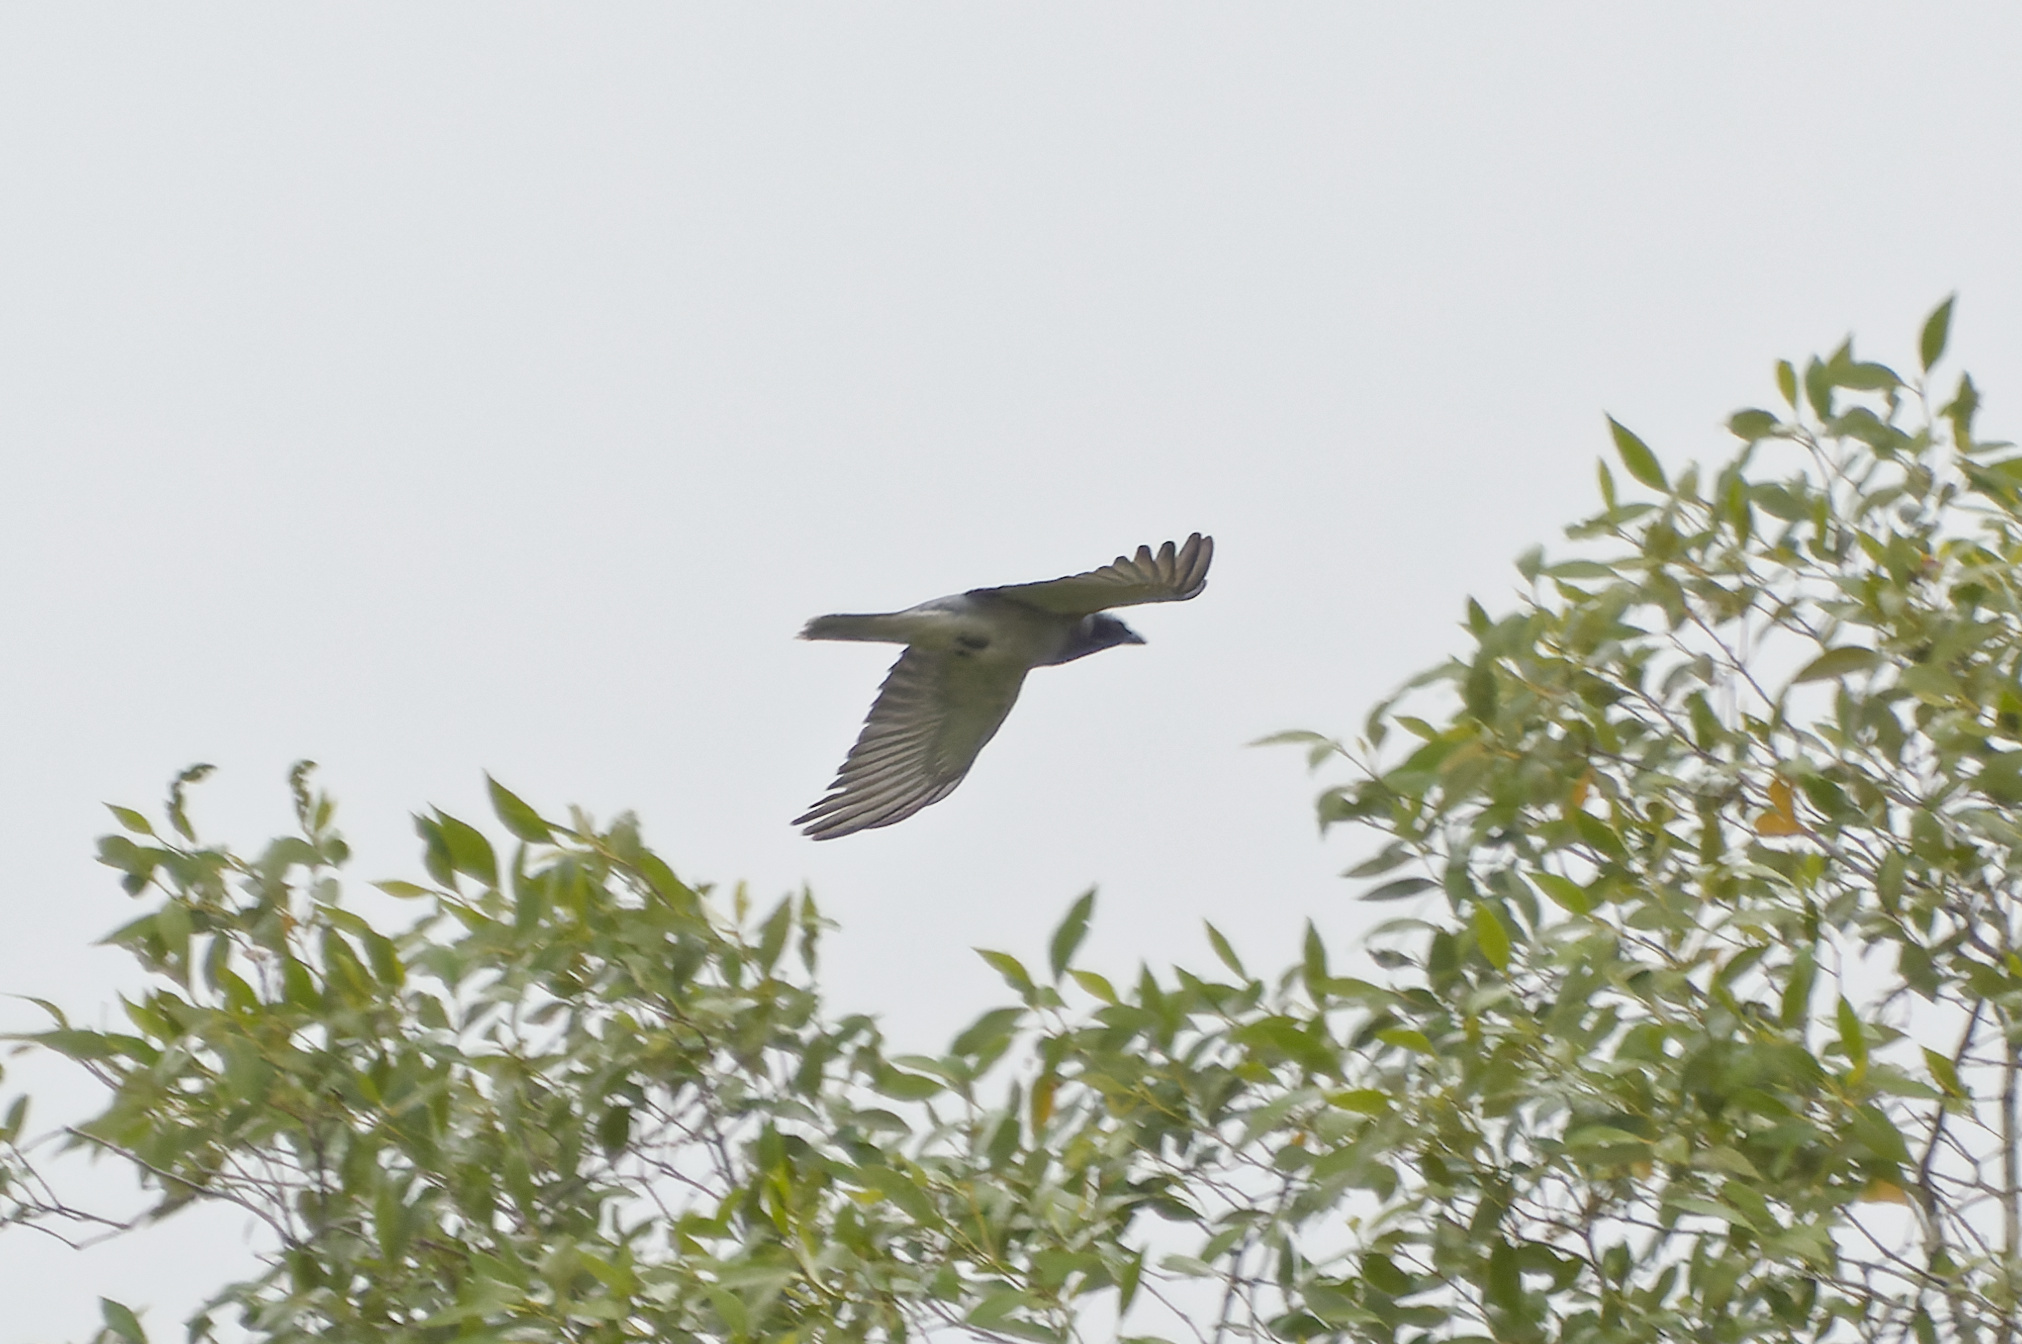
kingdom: Animalia
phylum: Chordata
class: Aves
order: Passeriformes
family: Campephagidae
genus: Coracina
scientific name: Coracina novaehollandiae
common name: Black-faced cuckooshrike
